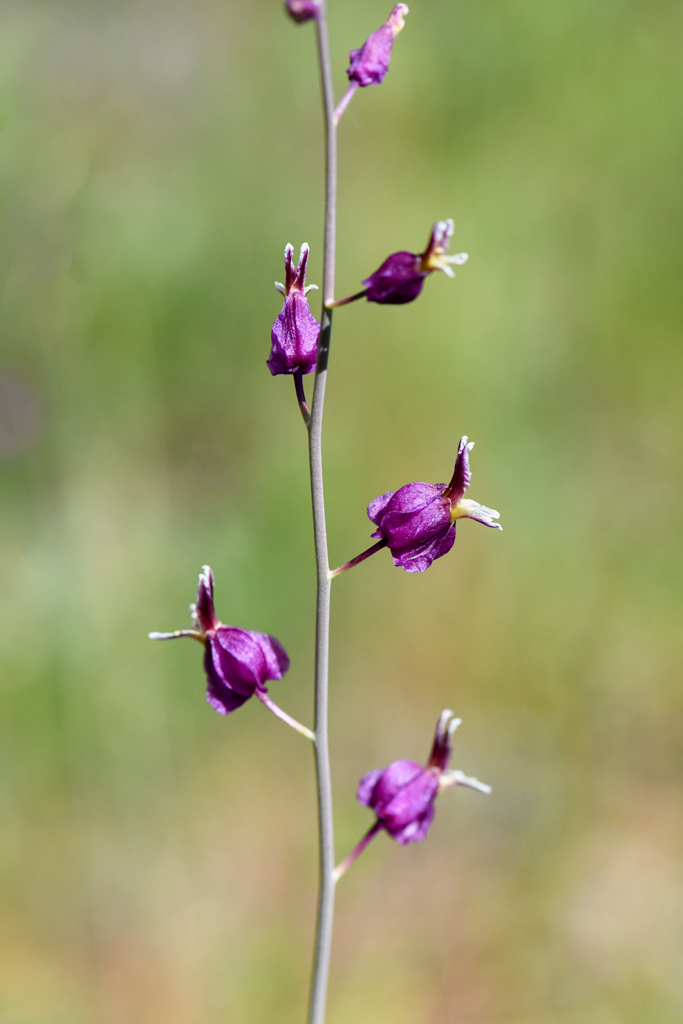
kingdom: Plantae
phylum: Tracheophyta
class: Magnoliopsida
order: Brassicales
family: Brassicaceae
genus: Streptanthus
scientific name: Streptanthus glandulosus
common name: Jewel-flower
